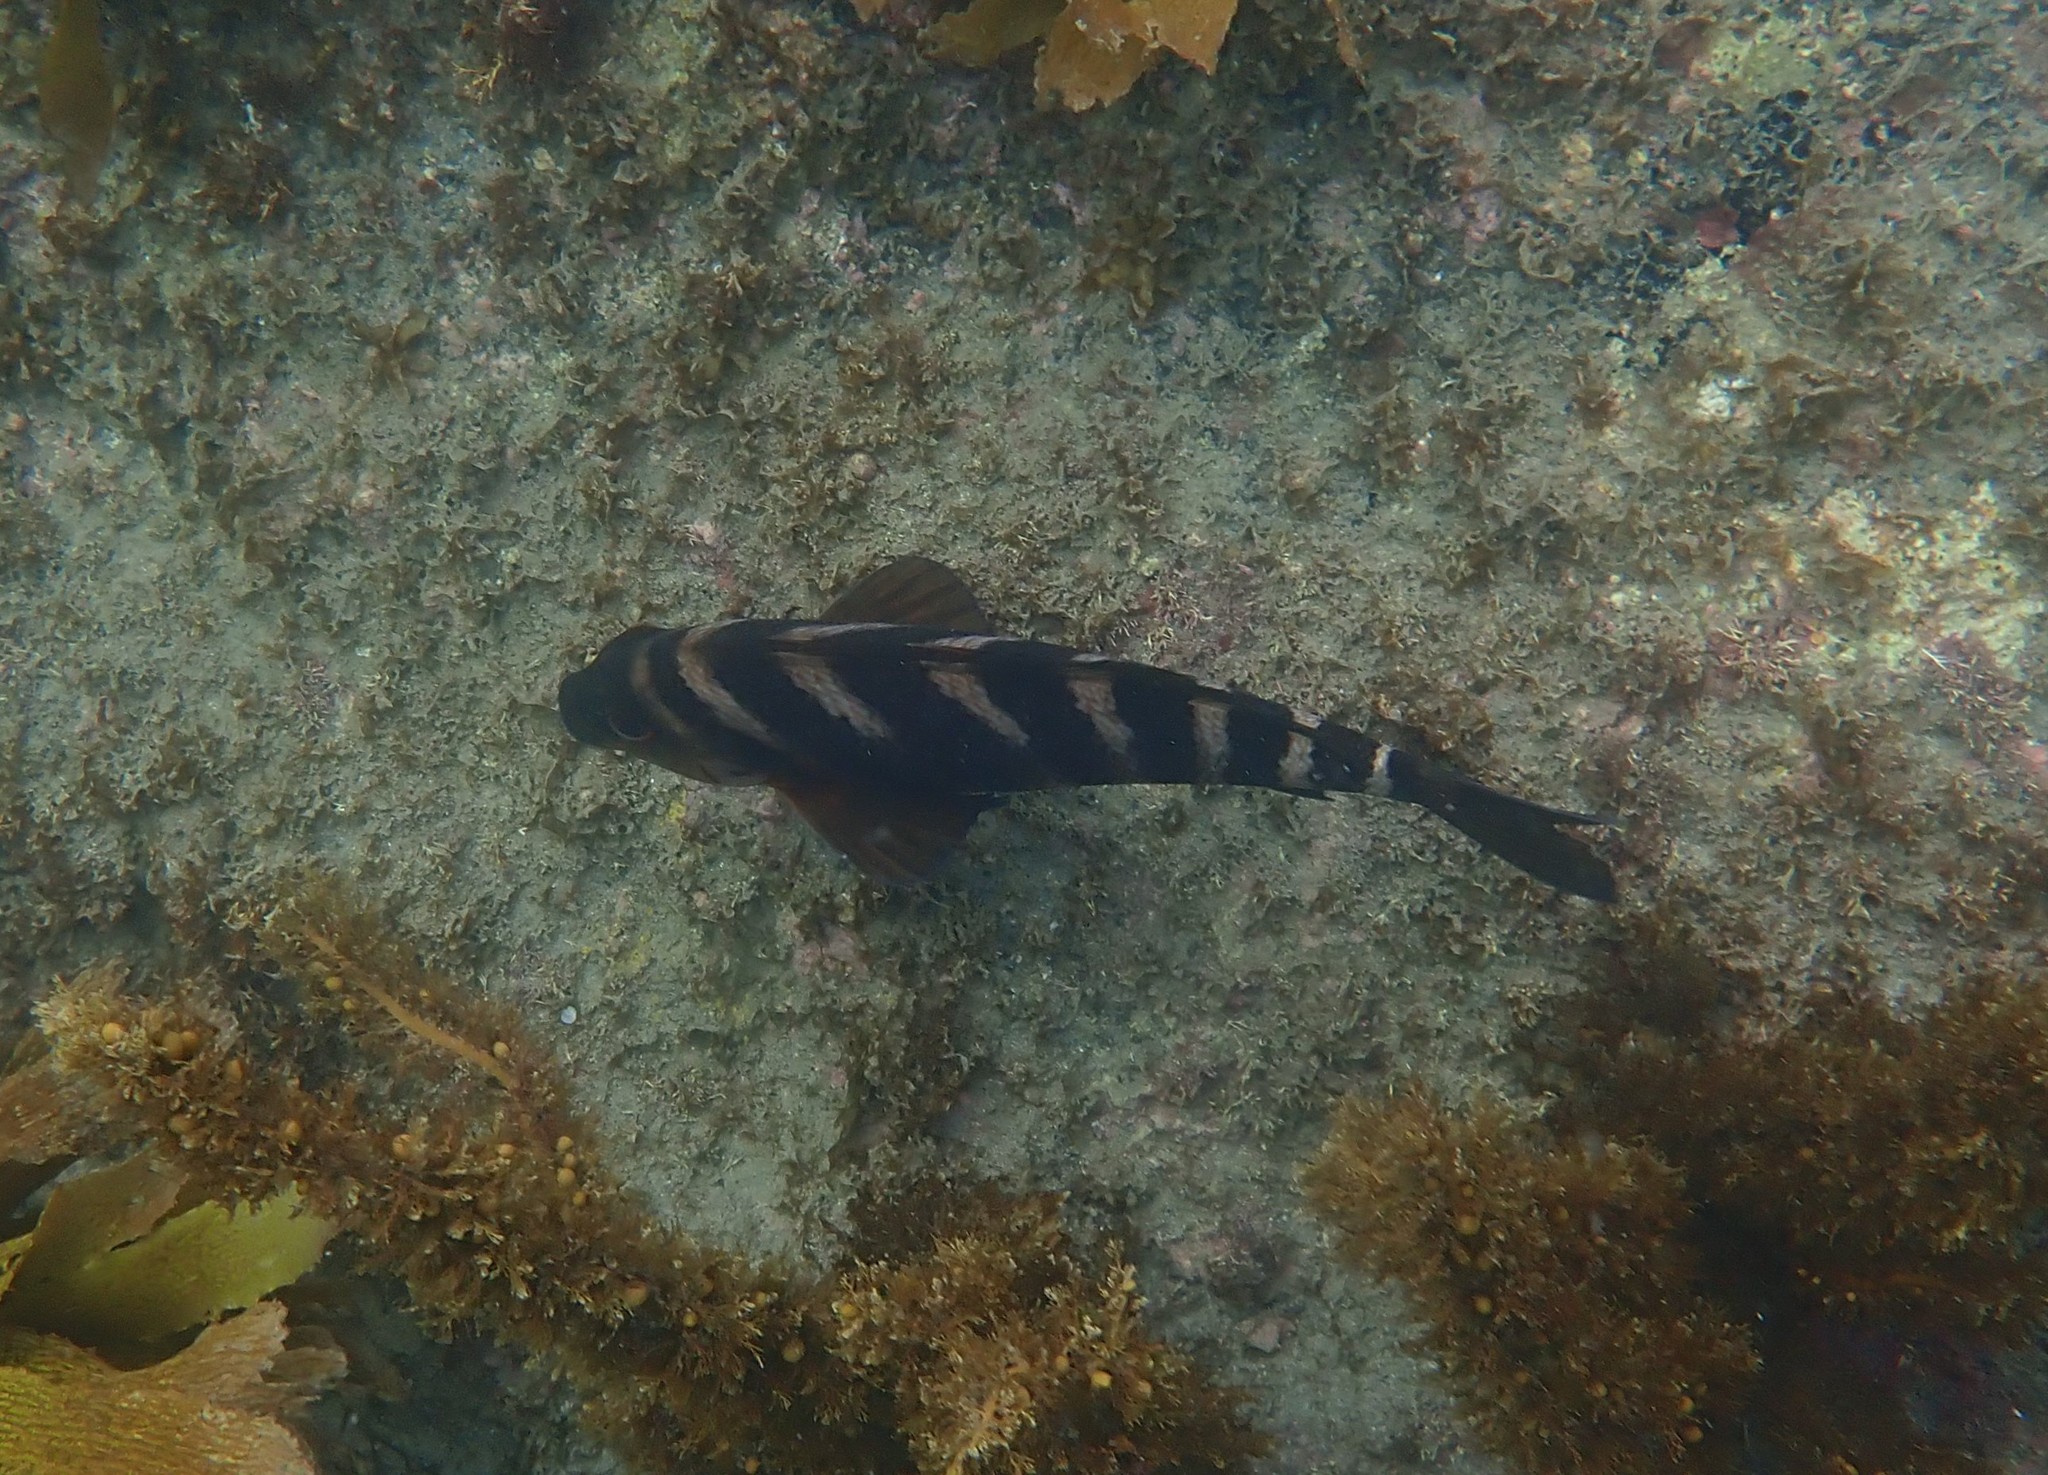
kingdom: Animalia
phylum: Chordata
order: Perciformes
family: Cheilodactylidae
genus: Cheilodactylus
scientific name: Cheilodactylus spectabilis
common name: Red moki
